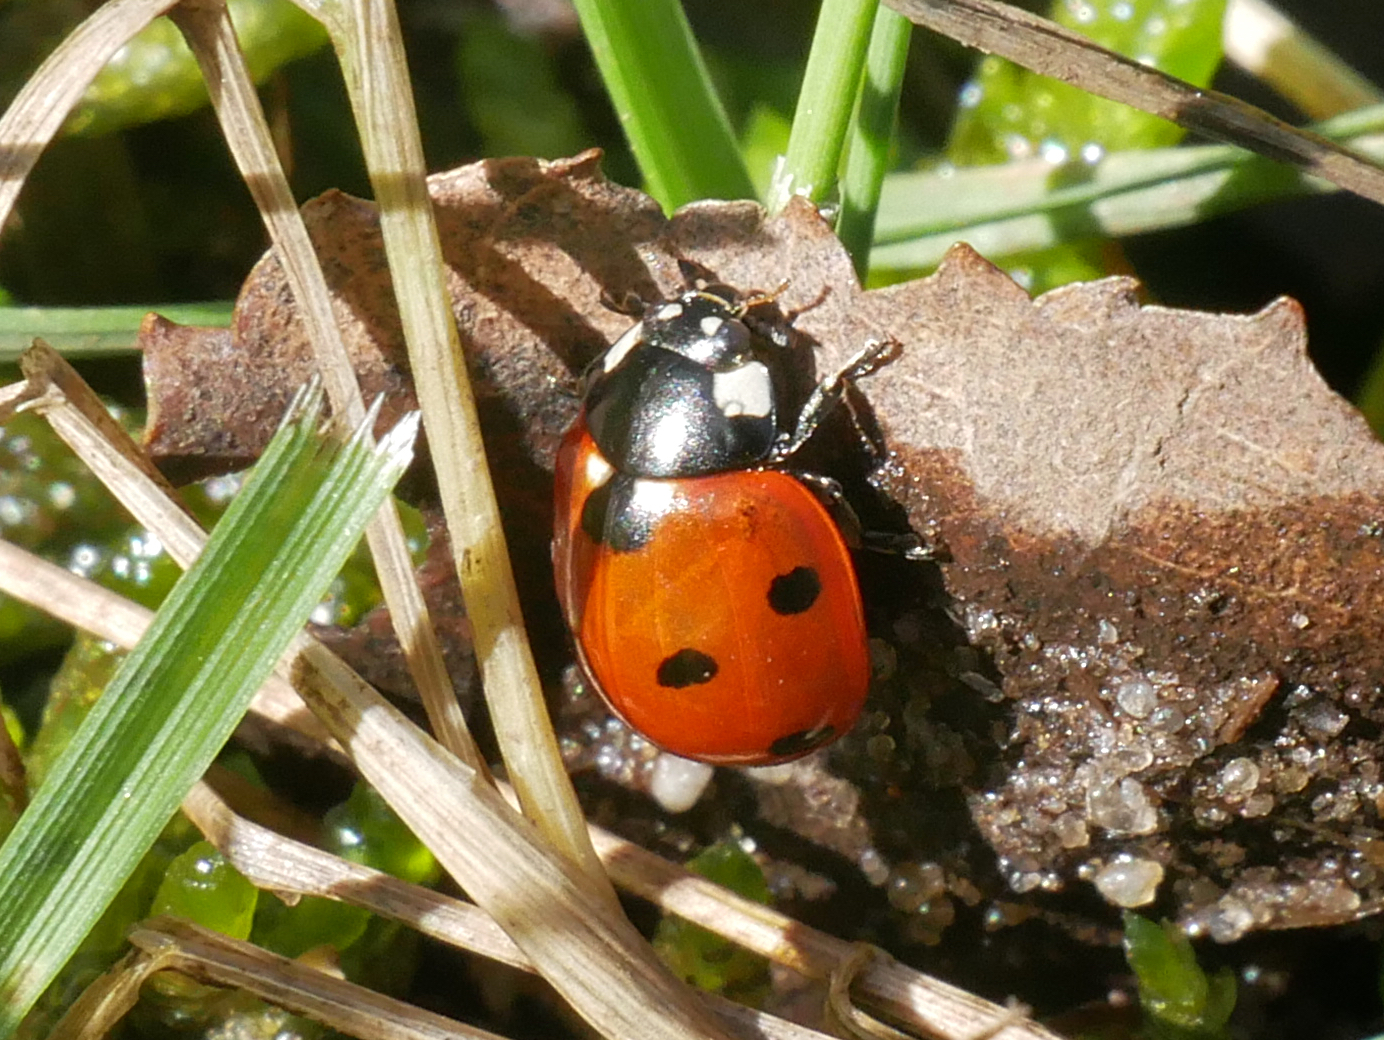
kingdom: Animalia
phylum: Arthropoda
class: Insecta
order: Coleoptera
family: Coccinellidae
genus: Coccinella
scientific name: Coccinella septempunctata
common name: Sevenspotted lady beetle
